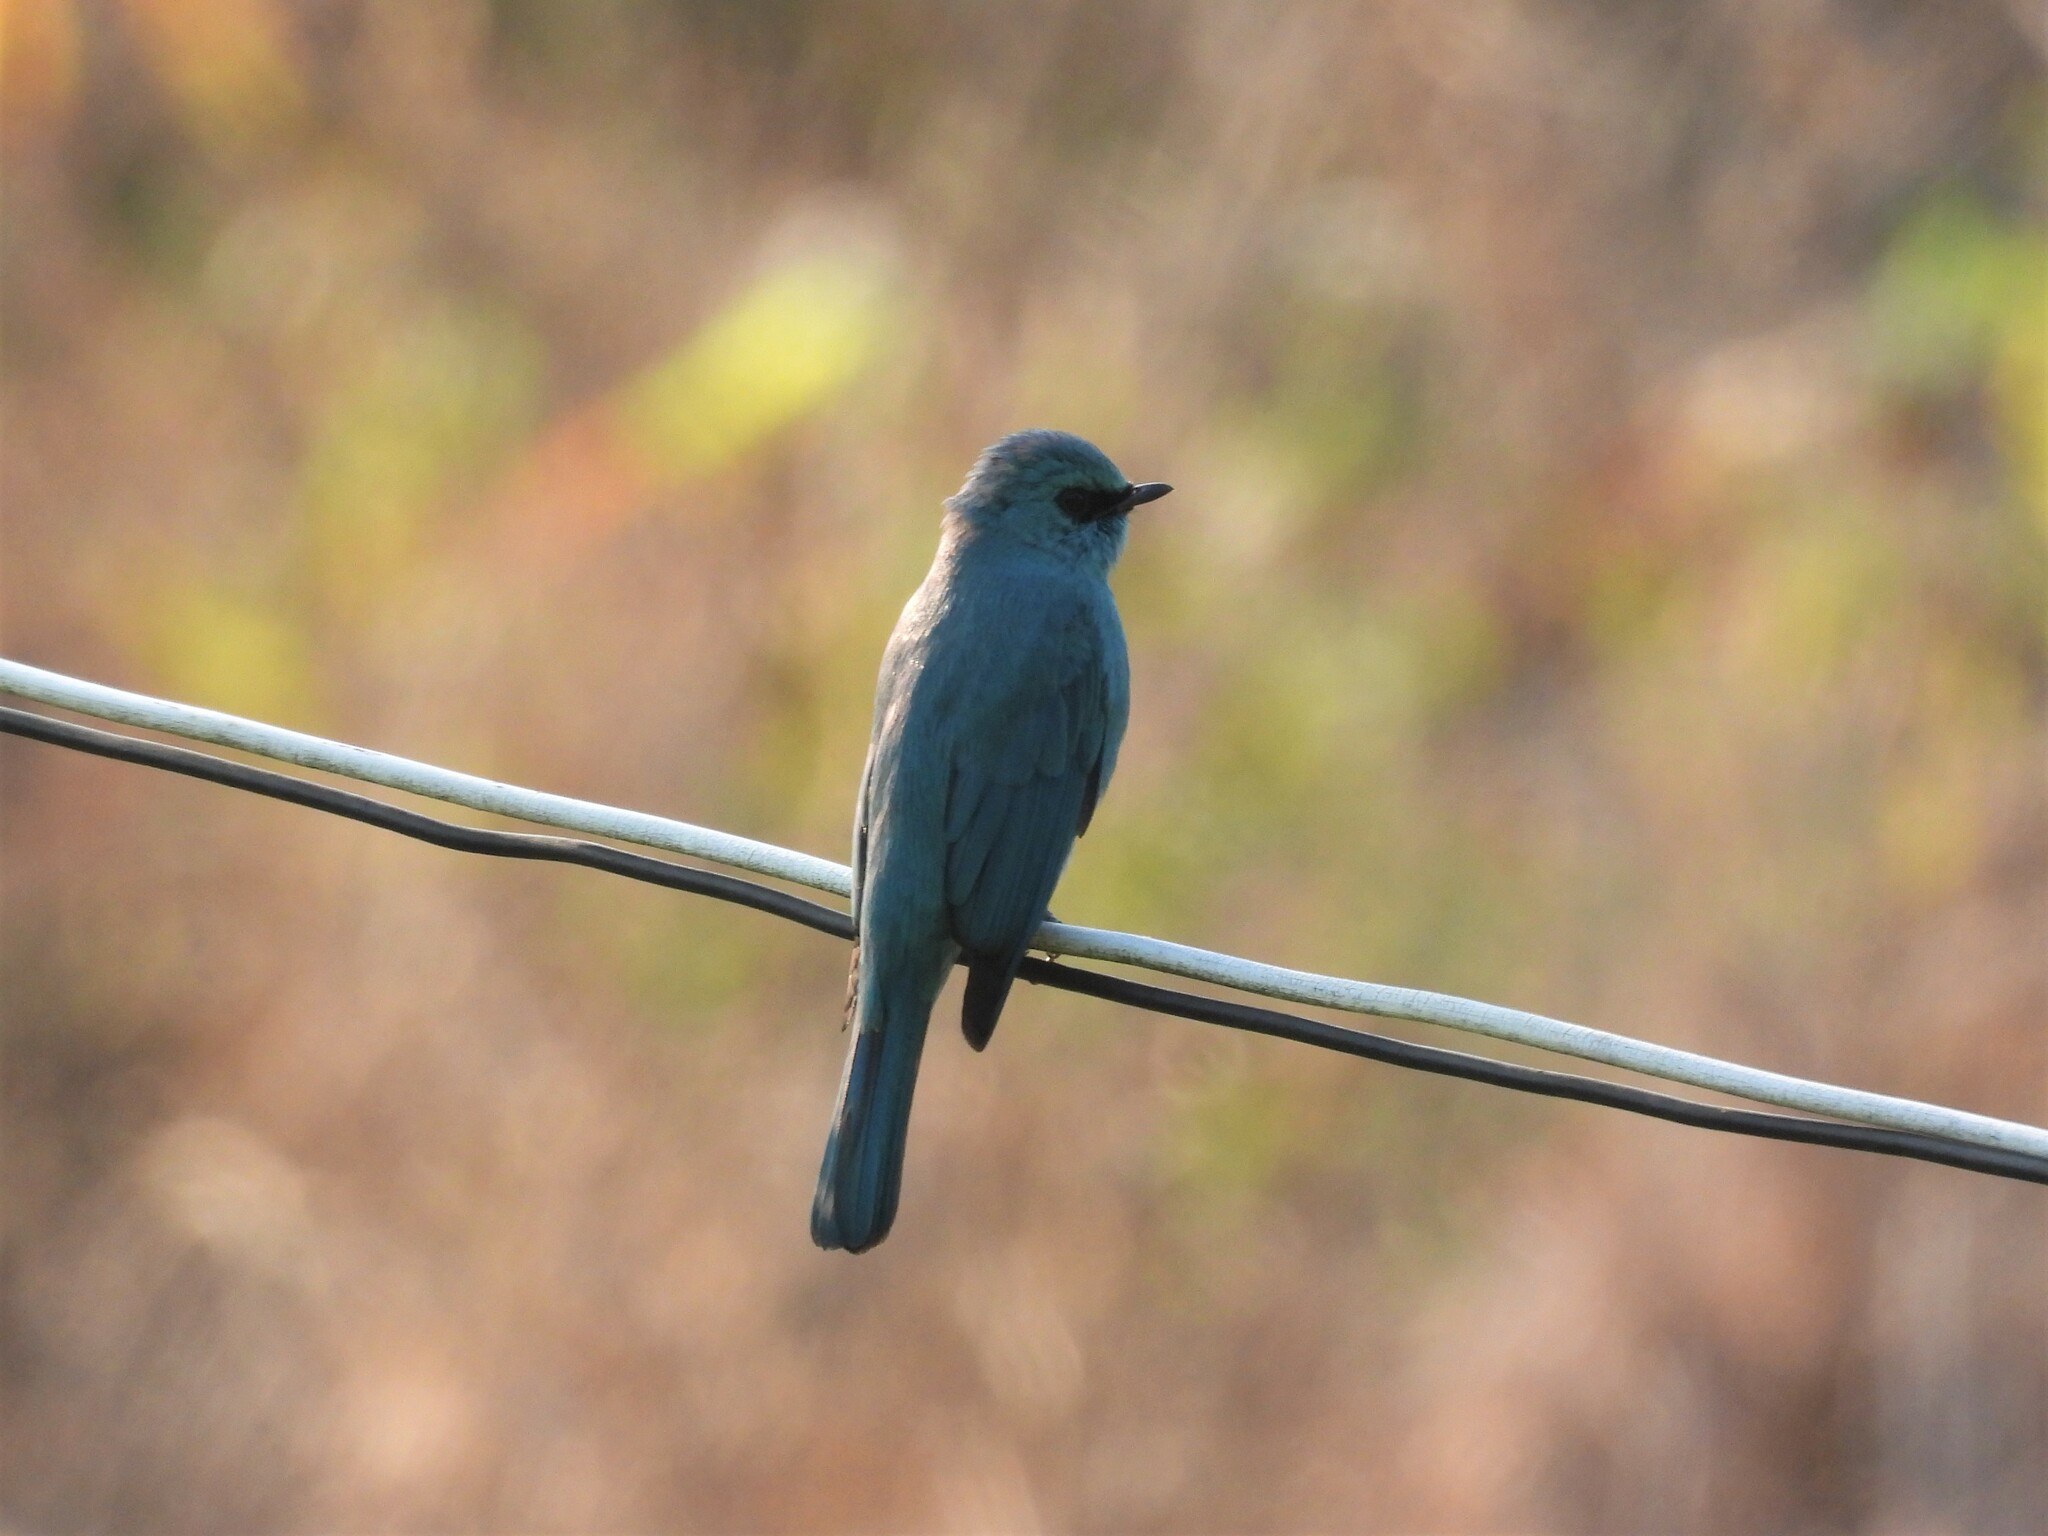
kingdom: Animalia
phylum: Chordata
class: Aves
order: Passeriformes
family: Muscicapidae
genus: Eumyias
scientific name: Eumyias thalassinus
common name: Verditer flycatcher
